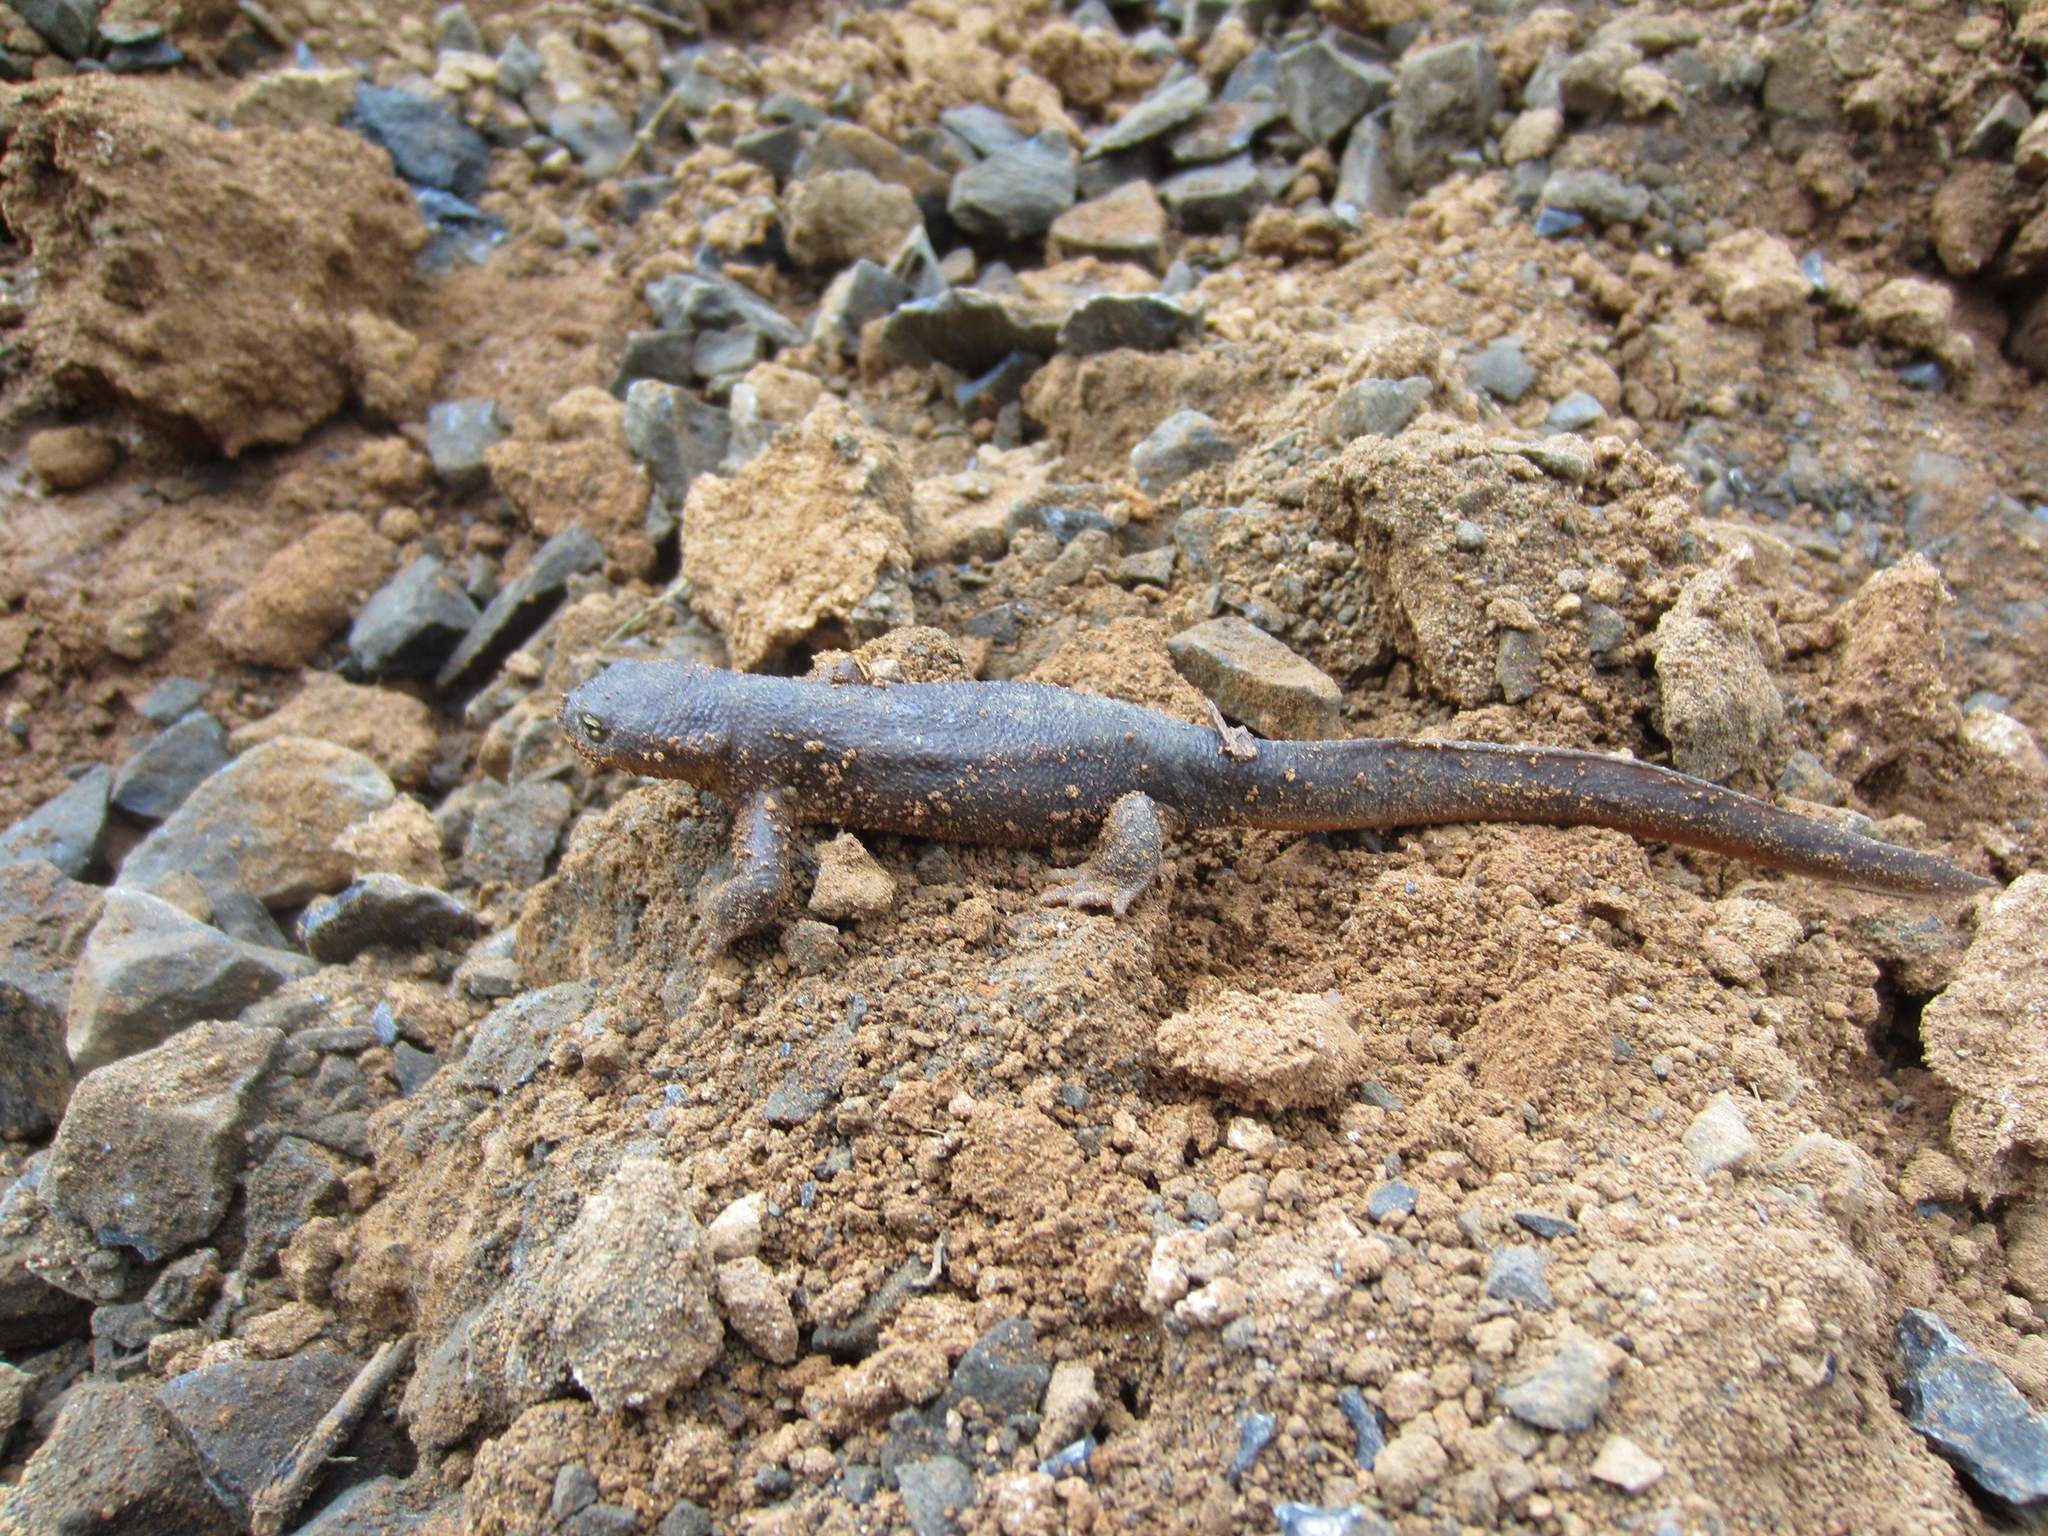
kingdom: Animalia
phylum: Chordata
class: Amphibia
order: Caudata
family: Salamandridae
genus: Taricha
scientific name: Taricha granulosa
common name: Roughskin newt
